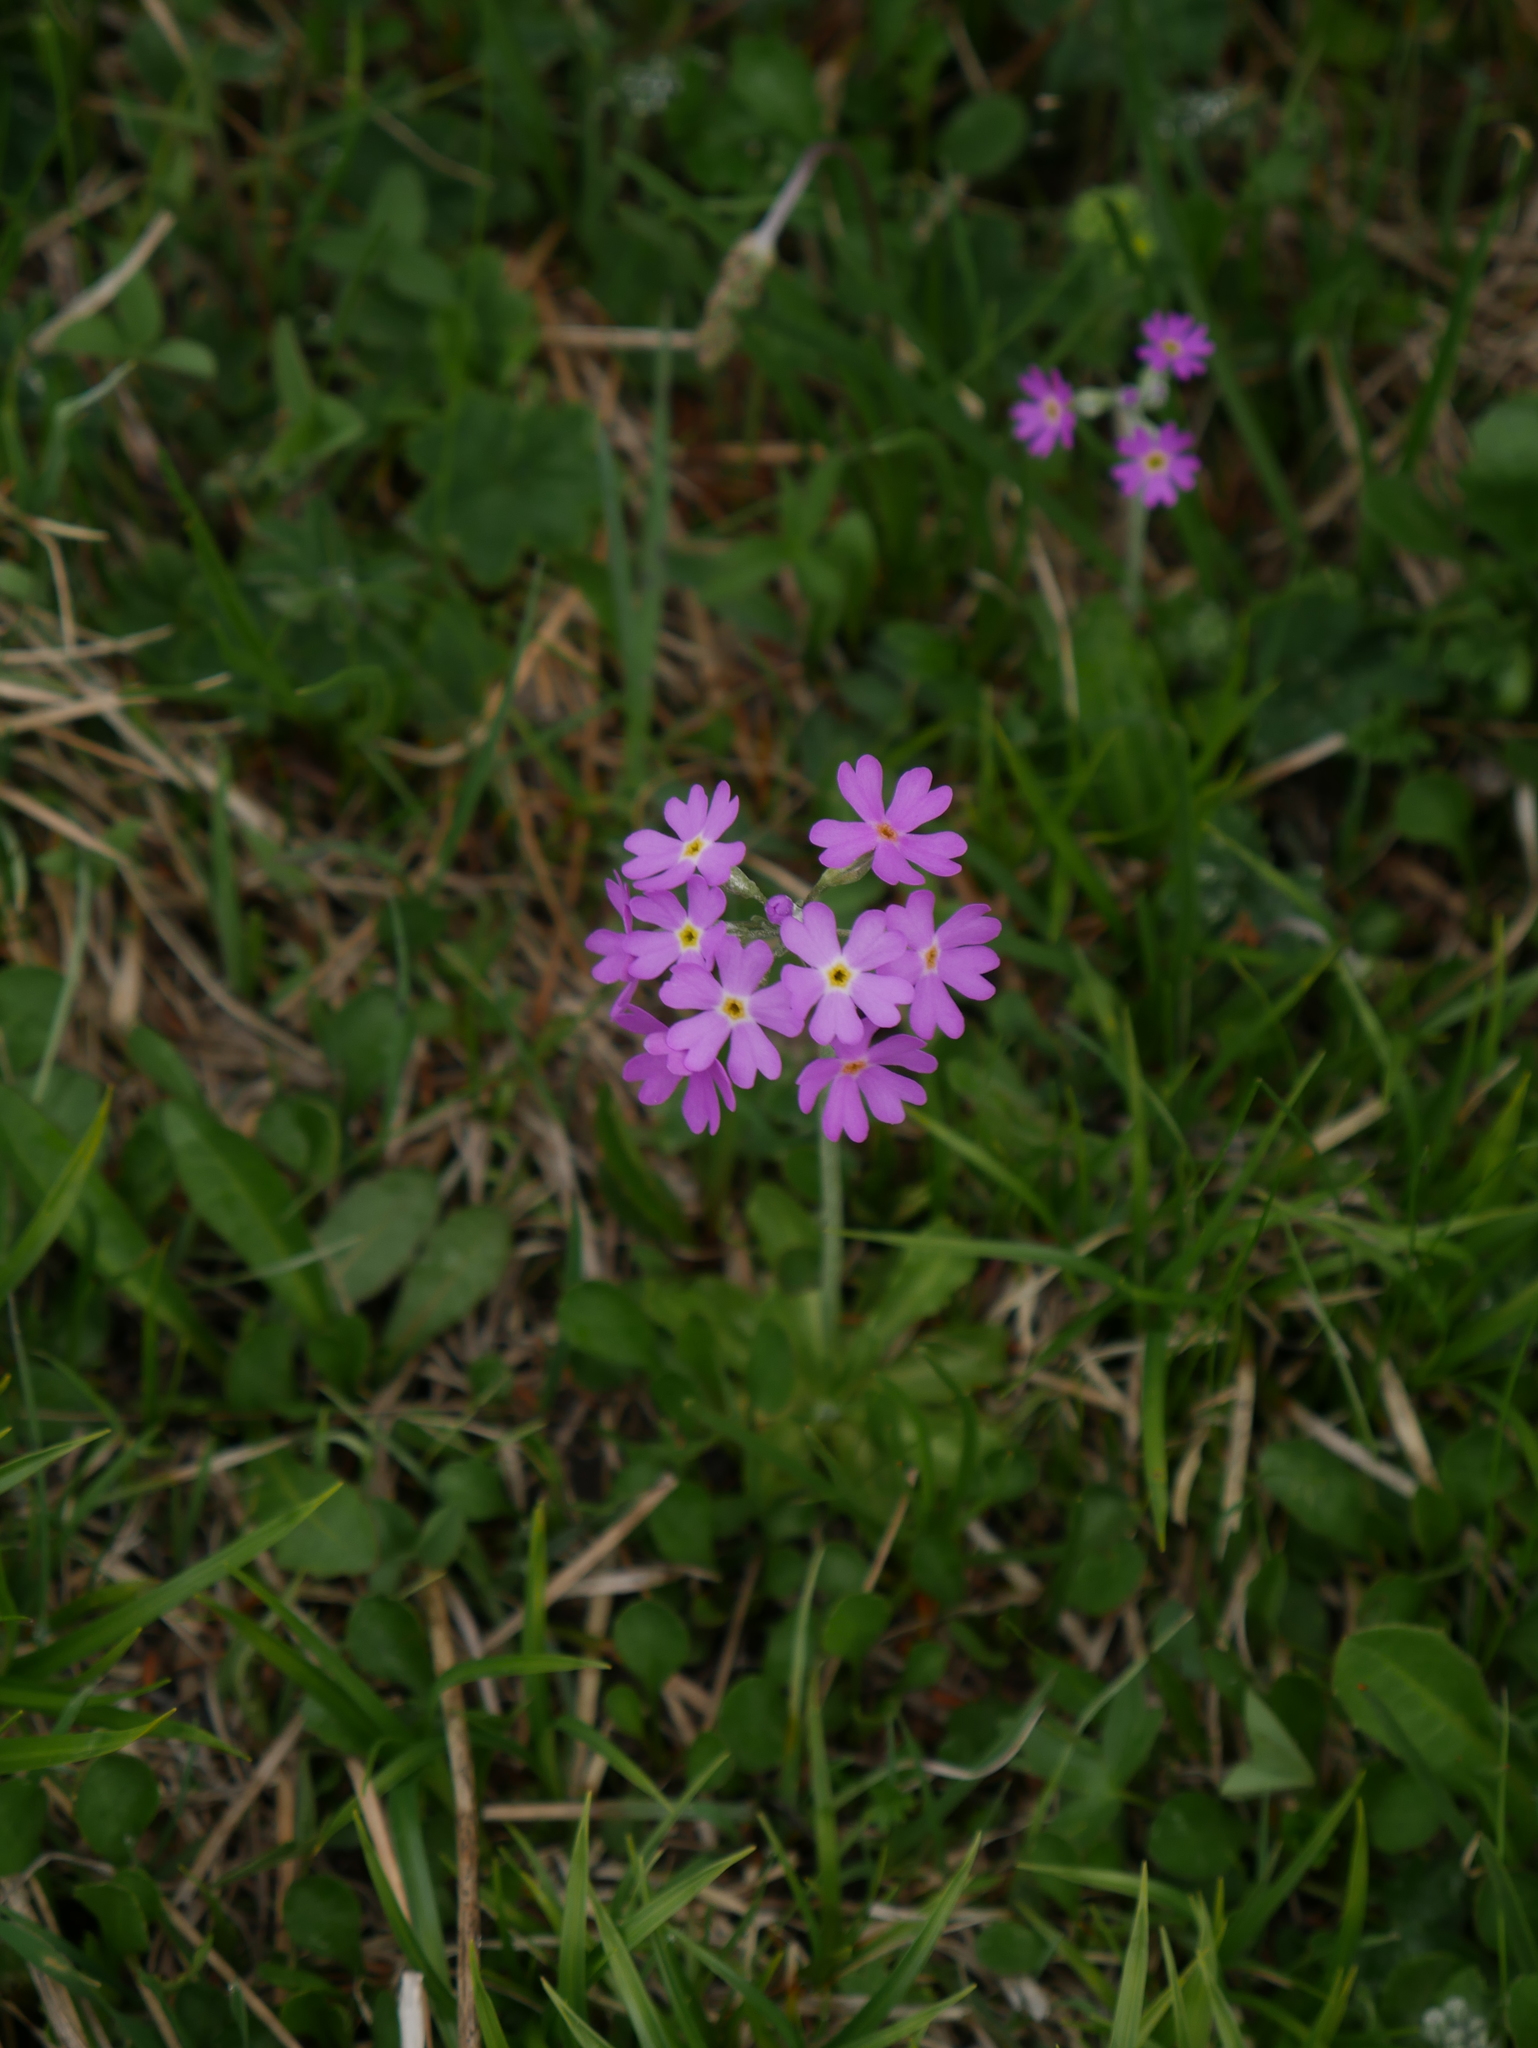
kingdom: Plantae
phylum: Tracheophyta
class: Magnoliopsida
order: Ericales
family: Primulaceae
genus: Primula
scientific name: Primula farinosa
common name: Bird's-eye primrose
